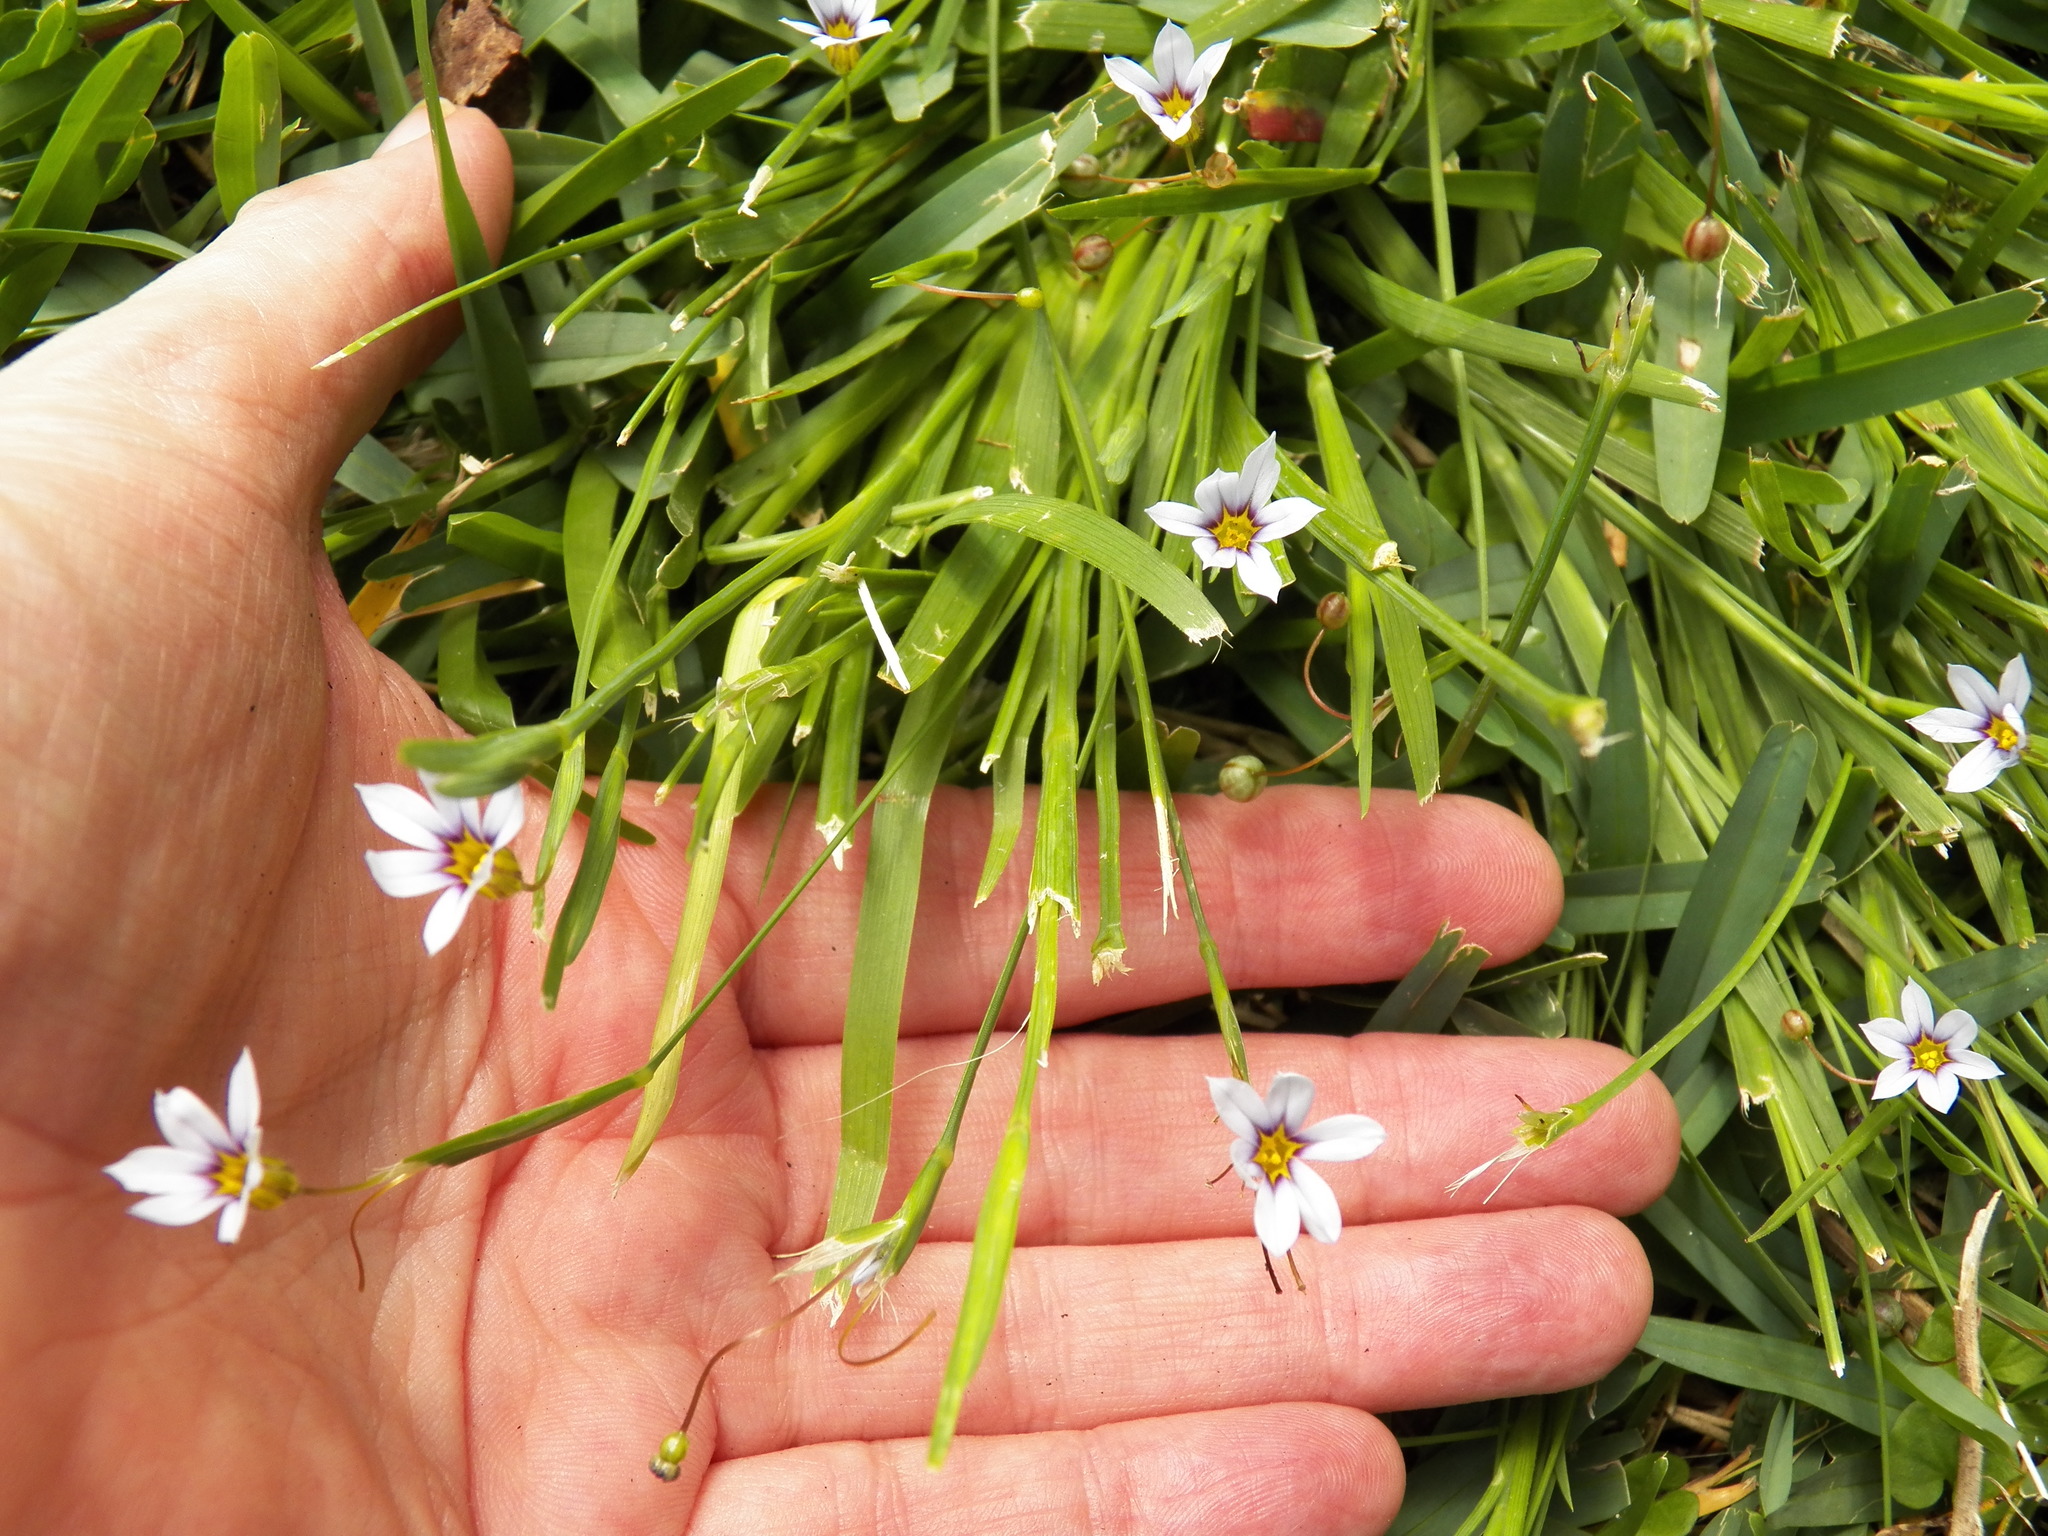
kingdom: Plantae
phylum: Tracheophyta
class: Liliopsida
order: Asparagales
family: Iridaceae
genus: Sisyrinchium
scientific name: Sisyrinchium micranthum
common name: Bermuda pigroot
